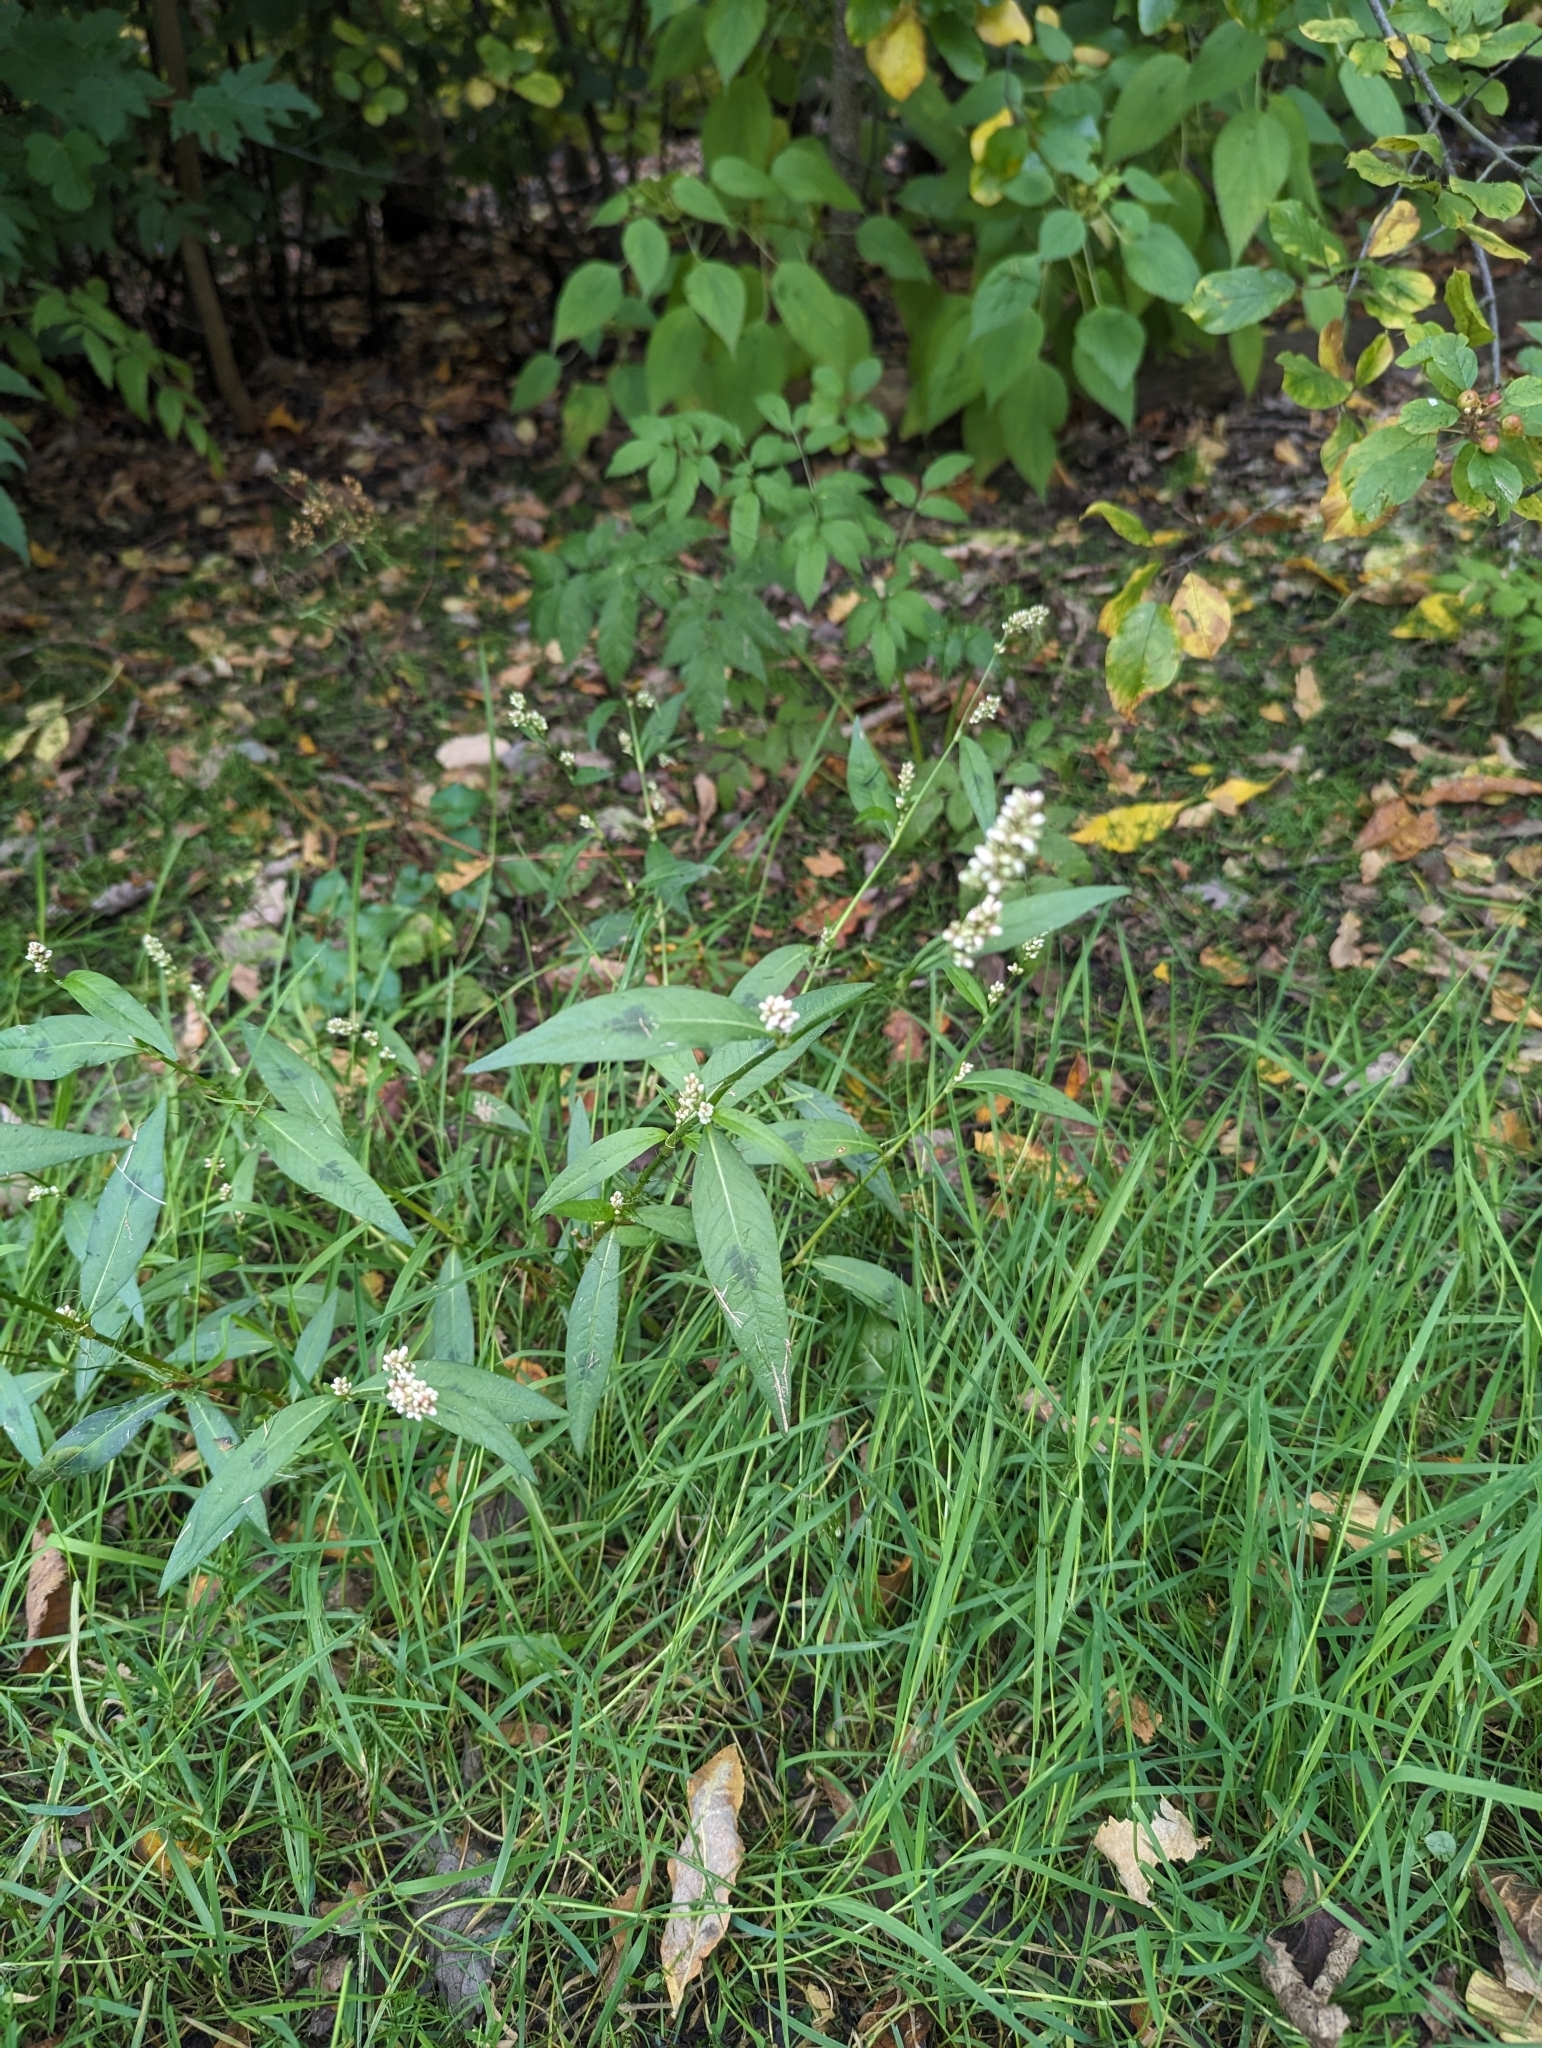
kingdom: Plantae
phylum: Tracheophyta
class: Magnoliopsida
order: Caryophyllales
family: Polygonaceae
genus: Persicaria
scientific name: Persicaria maculosa
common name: Redshank
